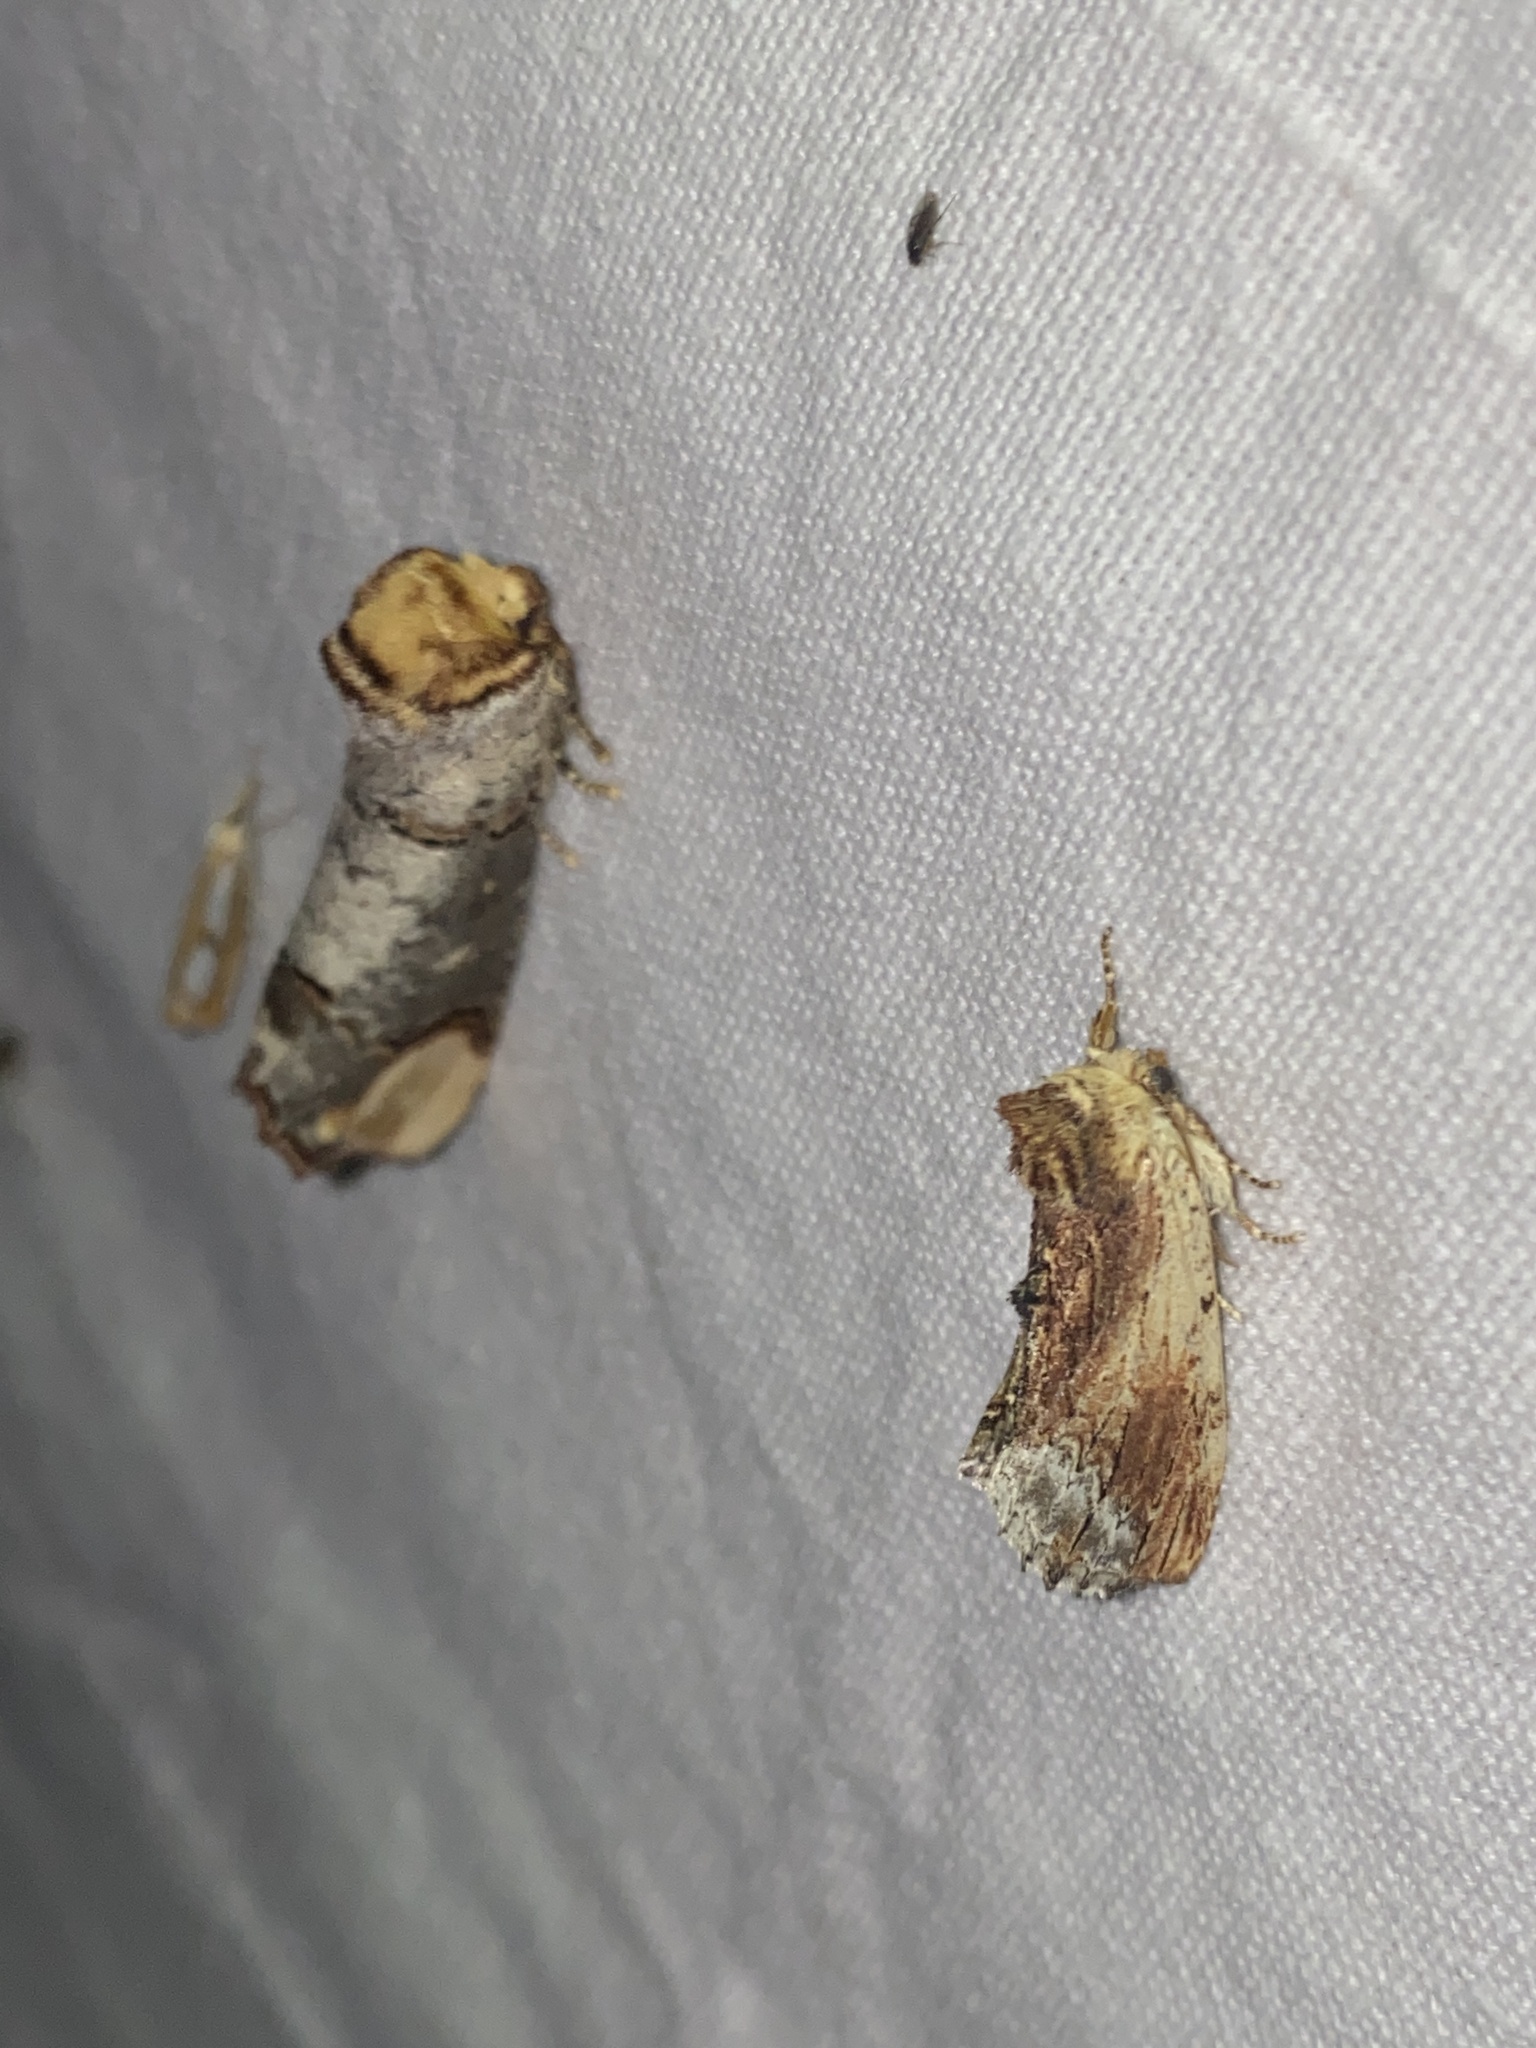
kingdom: Animalia
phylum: Arthropoda
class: Insecta
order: Lepidoptera
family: Notodontidae
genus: Ptilodon
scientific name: Ptilodon cucullina
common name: Maple prominent
